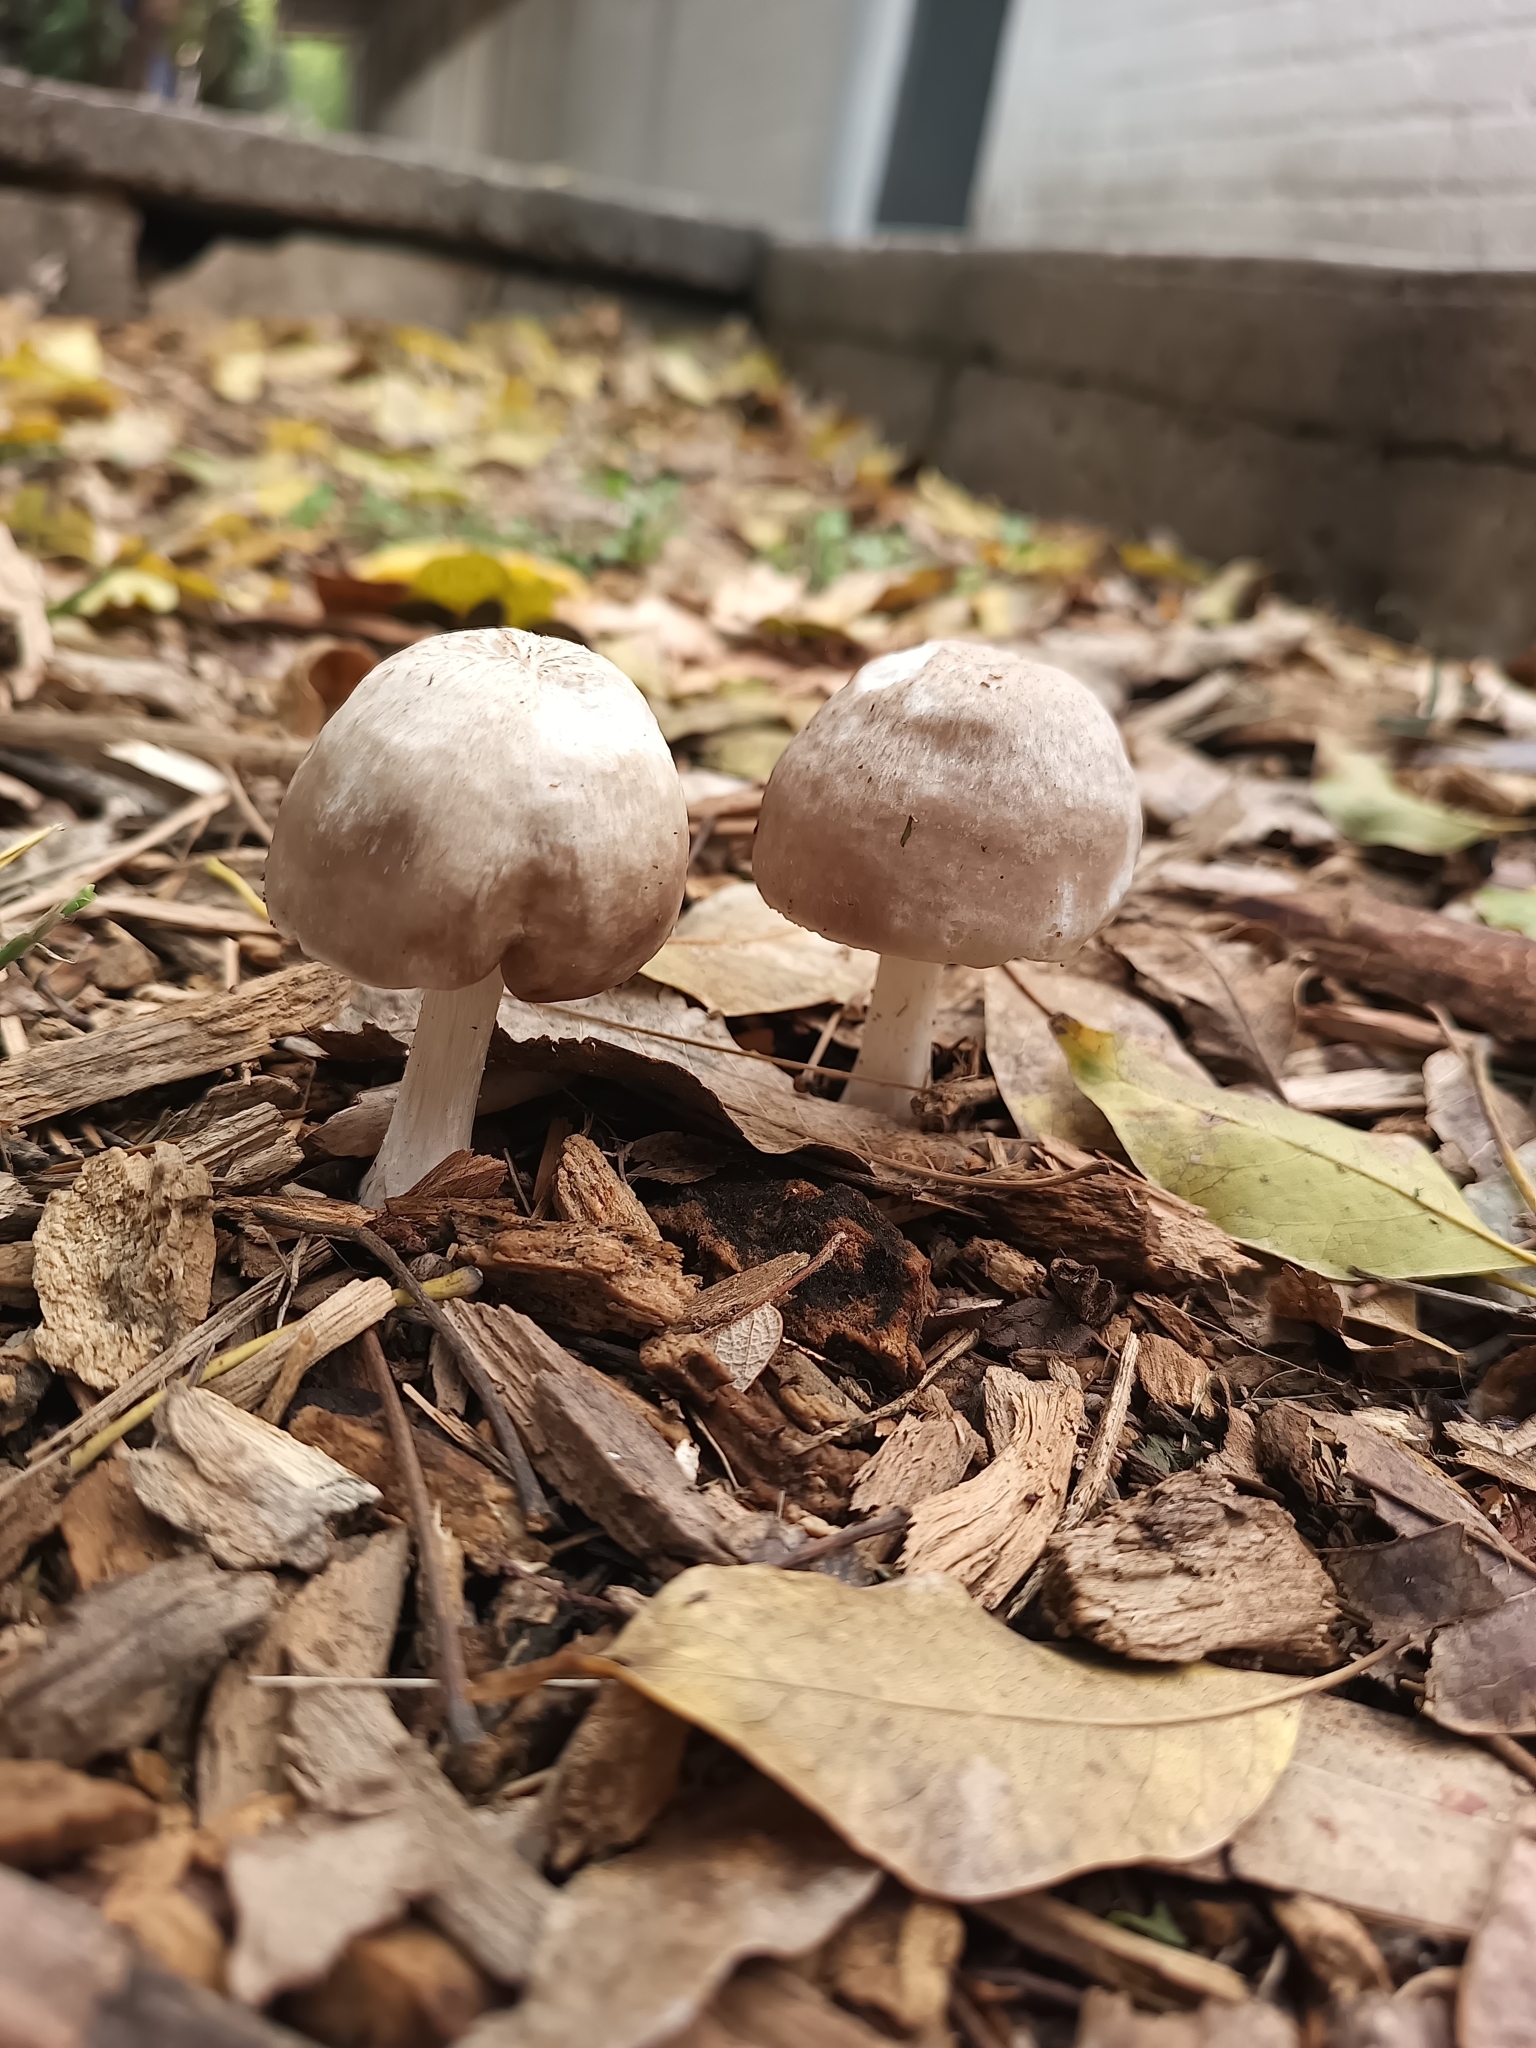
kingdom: Fungi
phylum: Basidiomycota
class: Agaricomycetes
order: Agaricales
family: Pluteaceae
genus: Pluteus
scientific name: Pluteus petasatus
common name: Scaly shield
